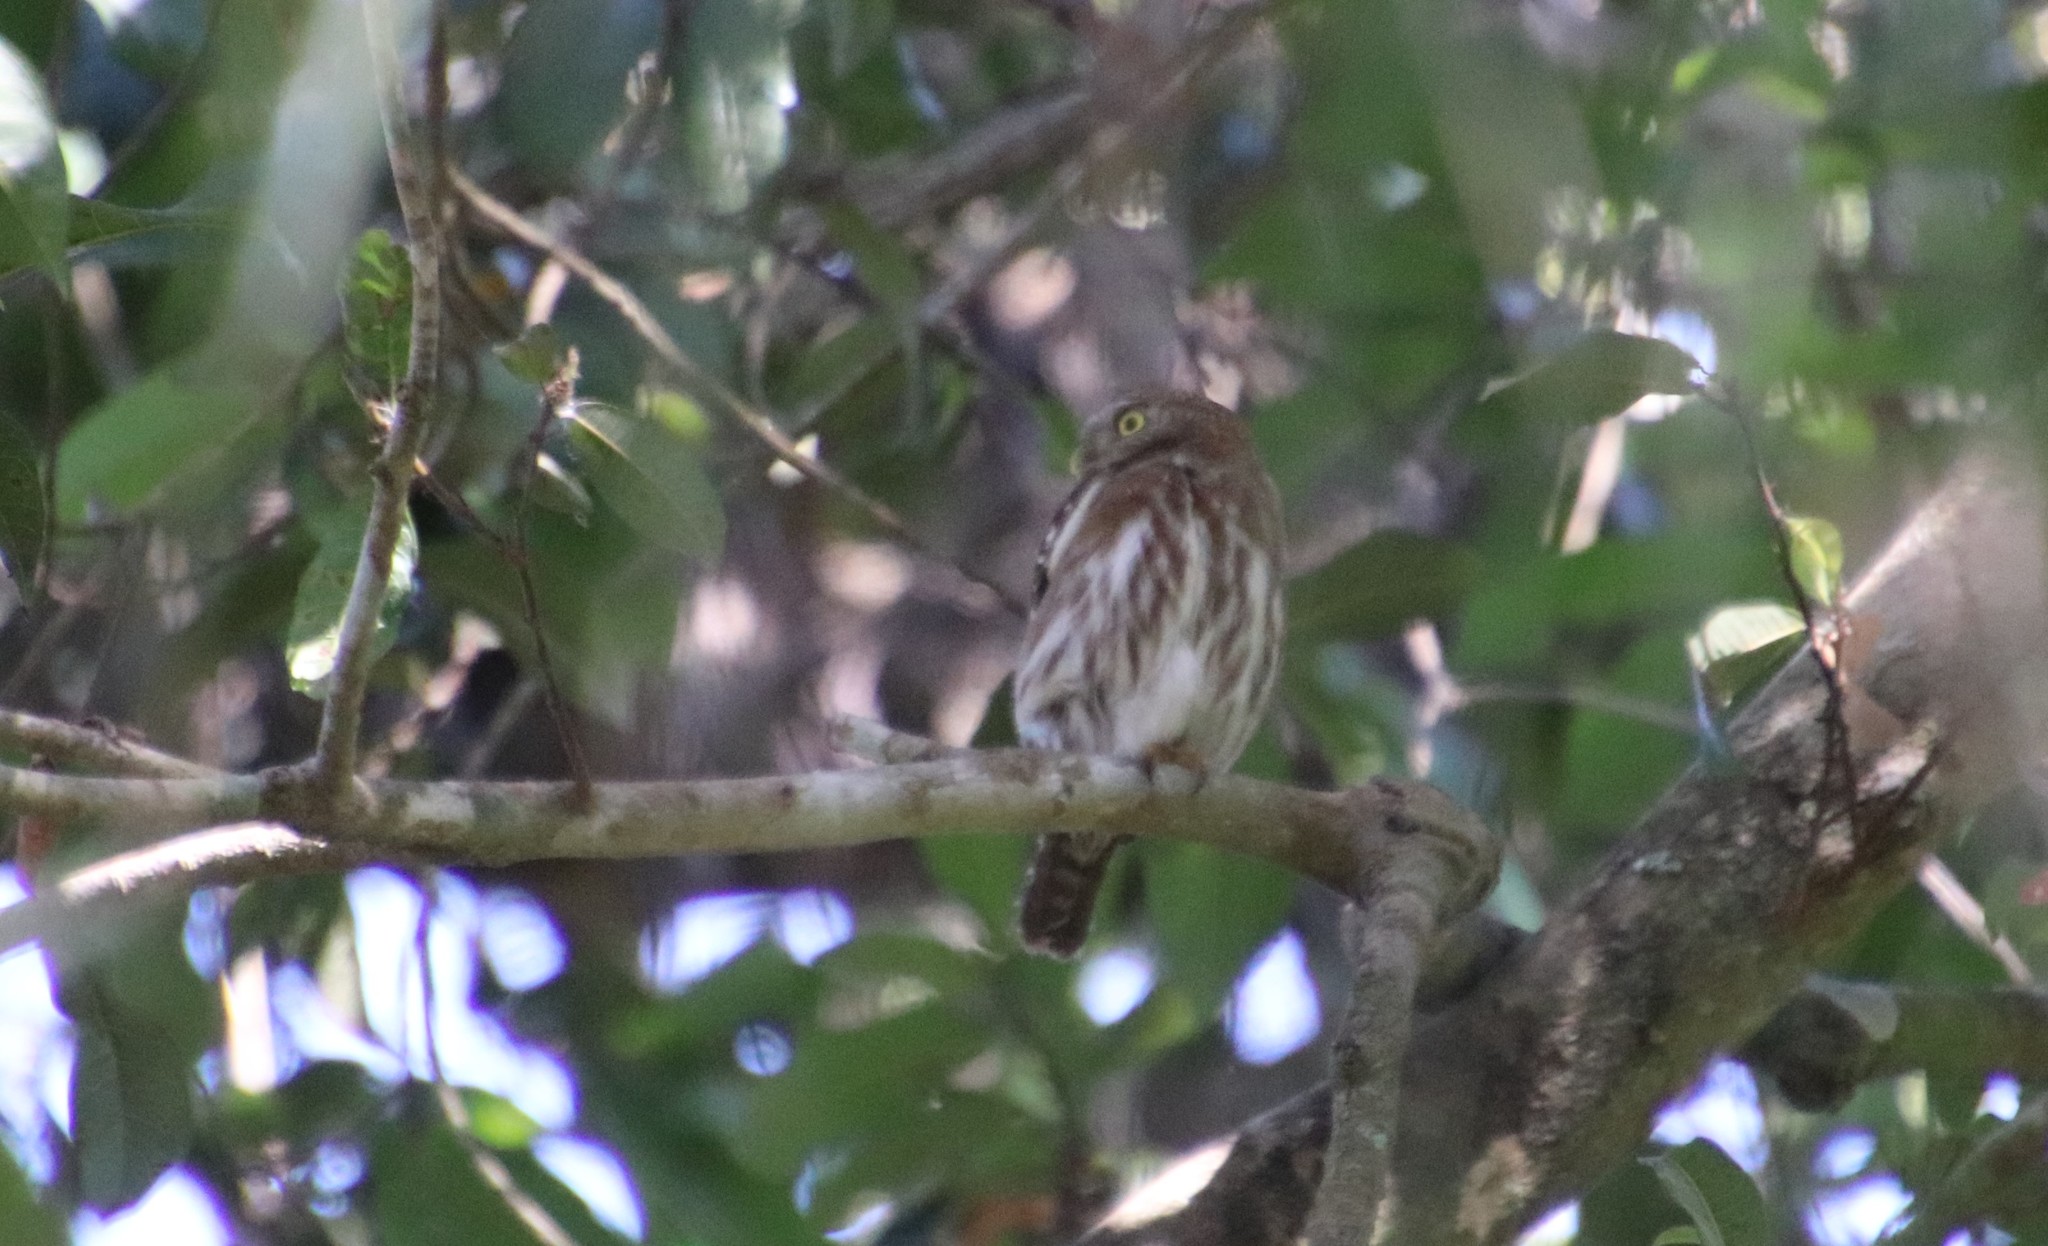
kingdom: Animalia
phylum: Chordata
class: Aves
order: Strigiformes
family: Strigidae
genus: Glaucidium
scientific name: Glaucidium brasilianum
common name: Ferruginous pygmy-owl
